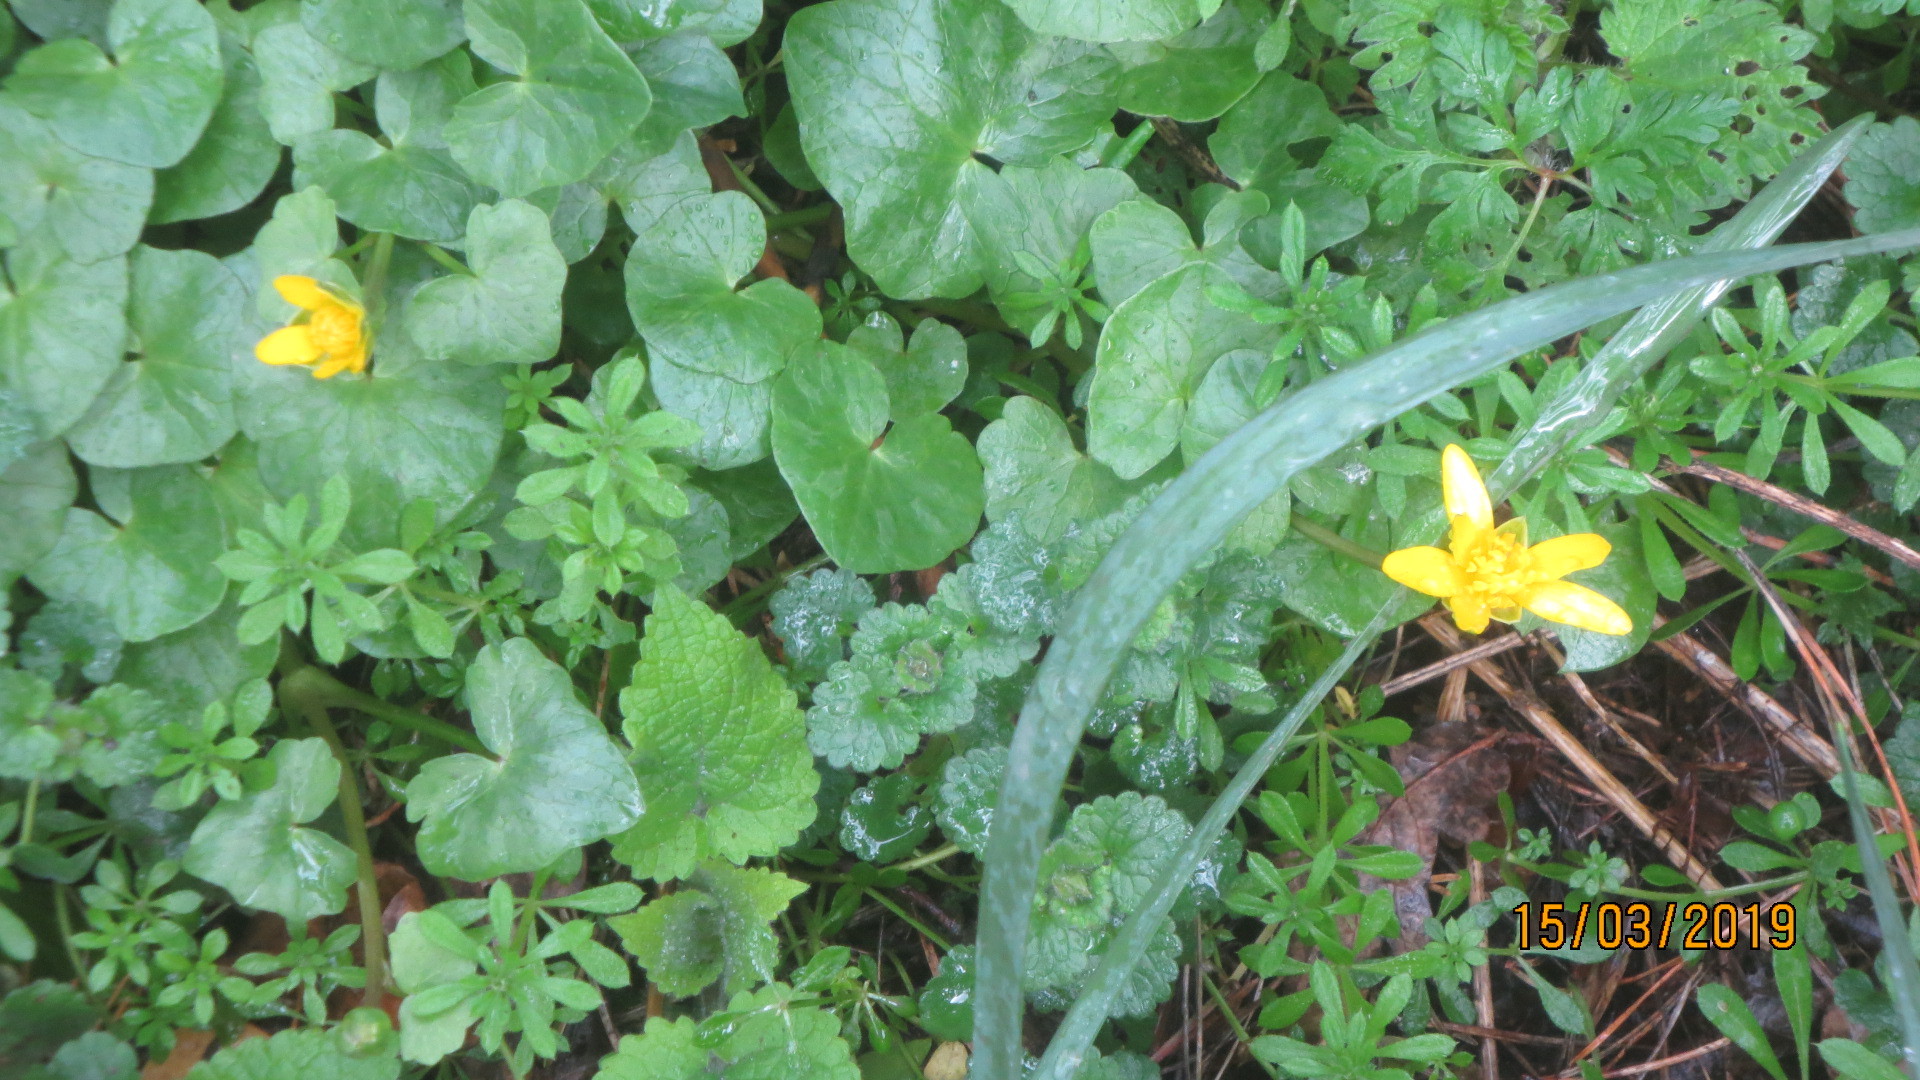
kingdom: Plantae
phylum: Tracheophyta
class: Magnoliopsida
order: Ranunculales
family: Ranunculaceae
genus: Ficaria
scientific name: Ficaria verna
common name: Lesser celandine
